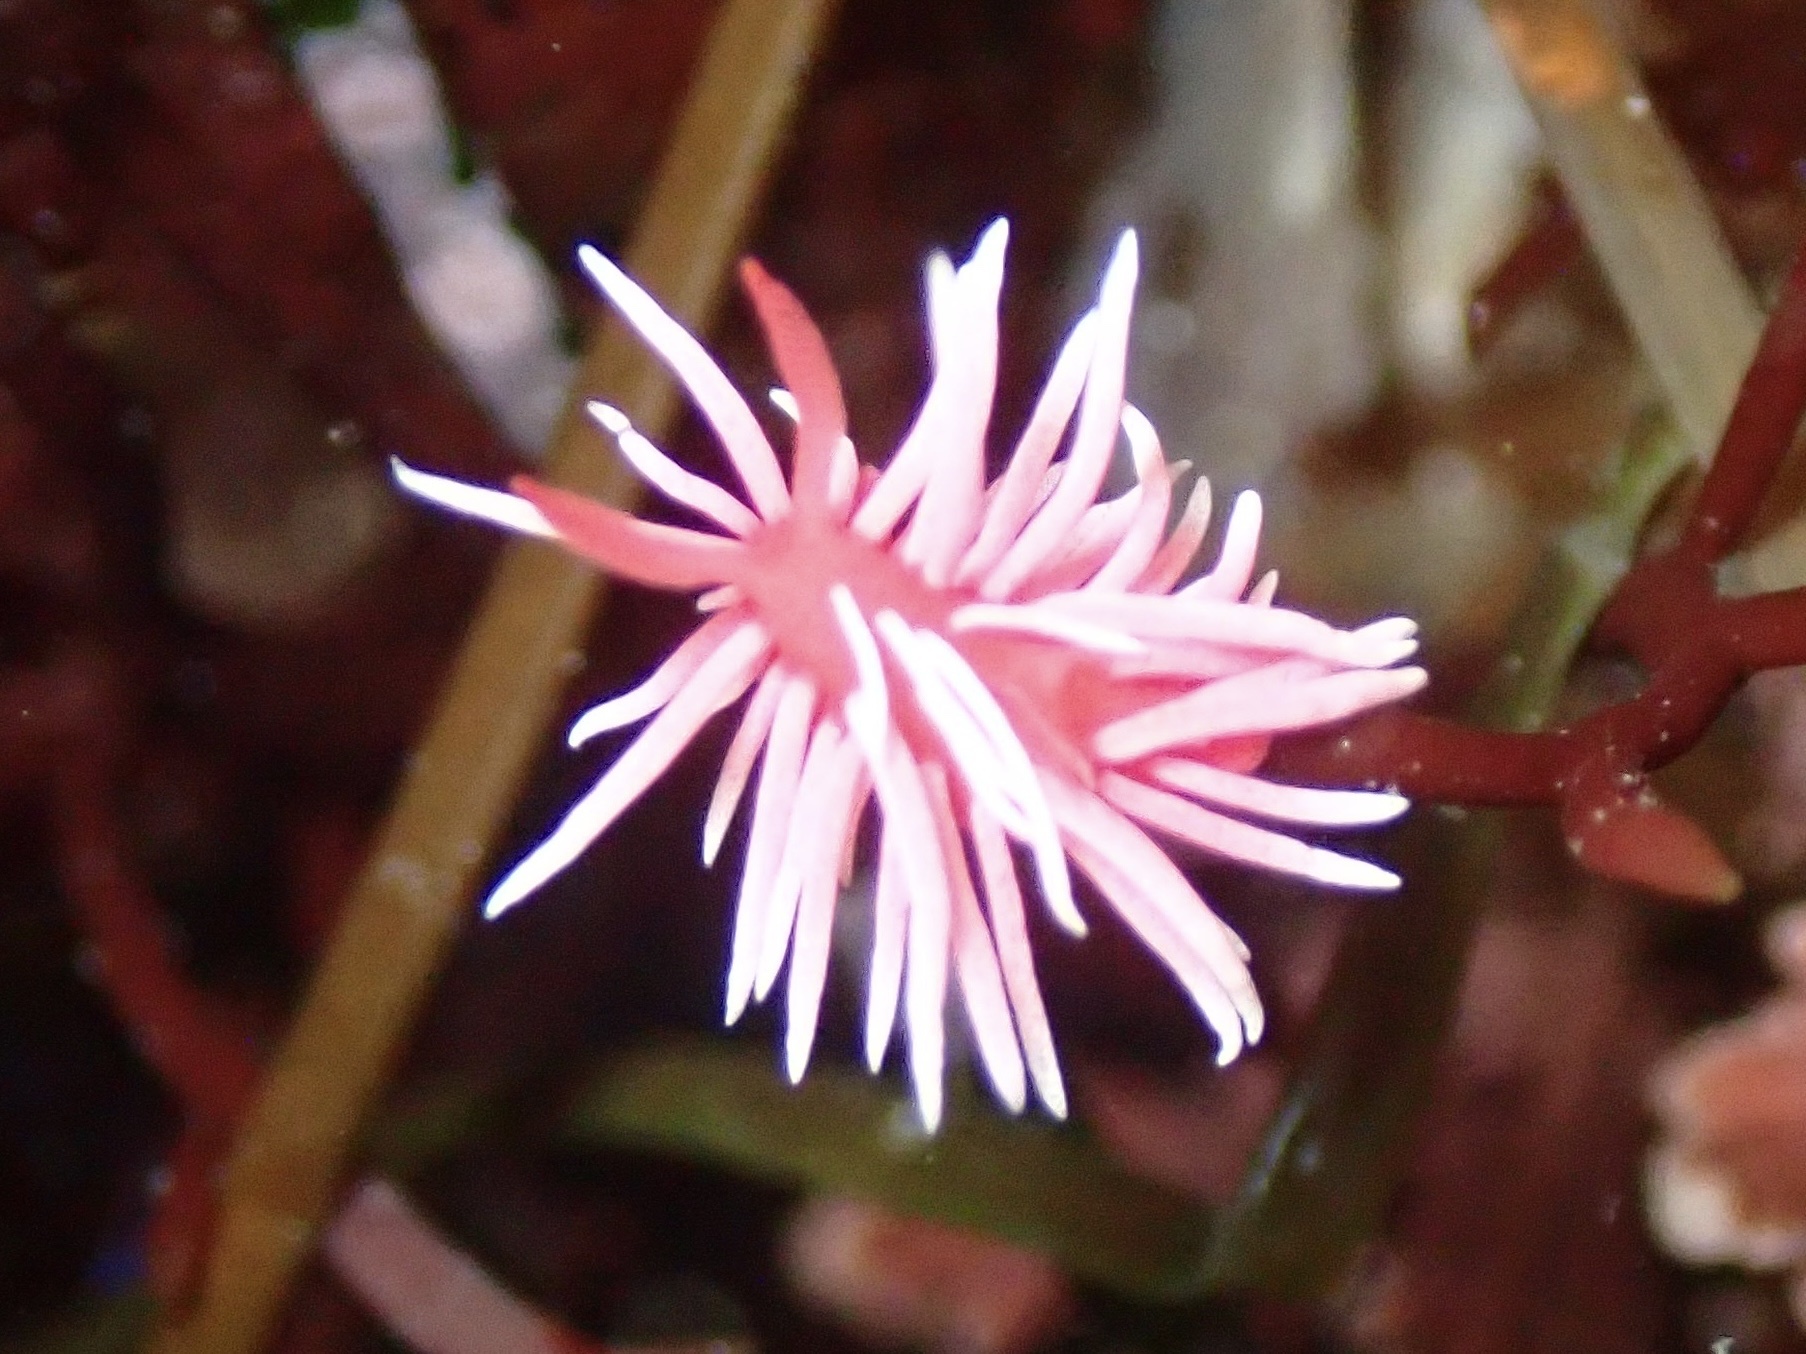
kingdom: Animalia
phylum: Mollusca
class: Gastropoda
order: Nudibranchia
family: Goniodorididae
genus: Okenia
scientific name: Okenia
